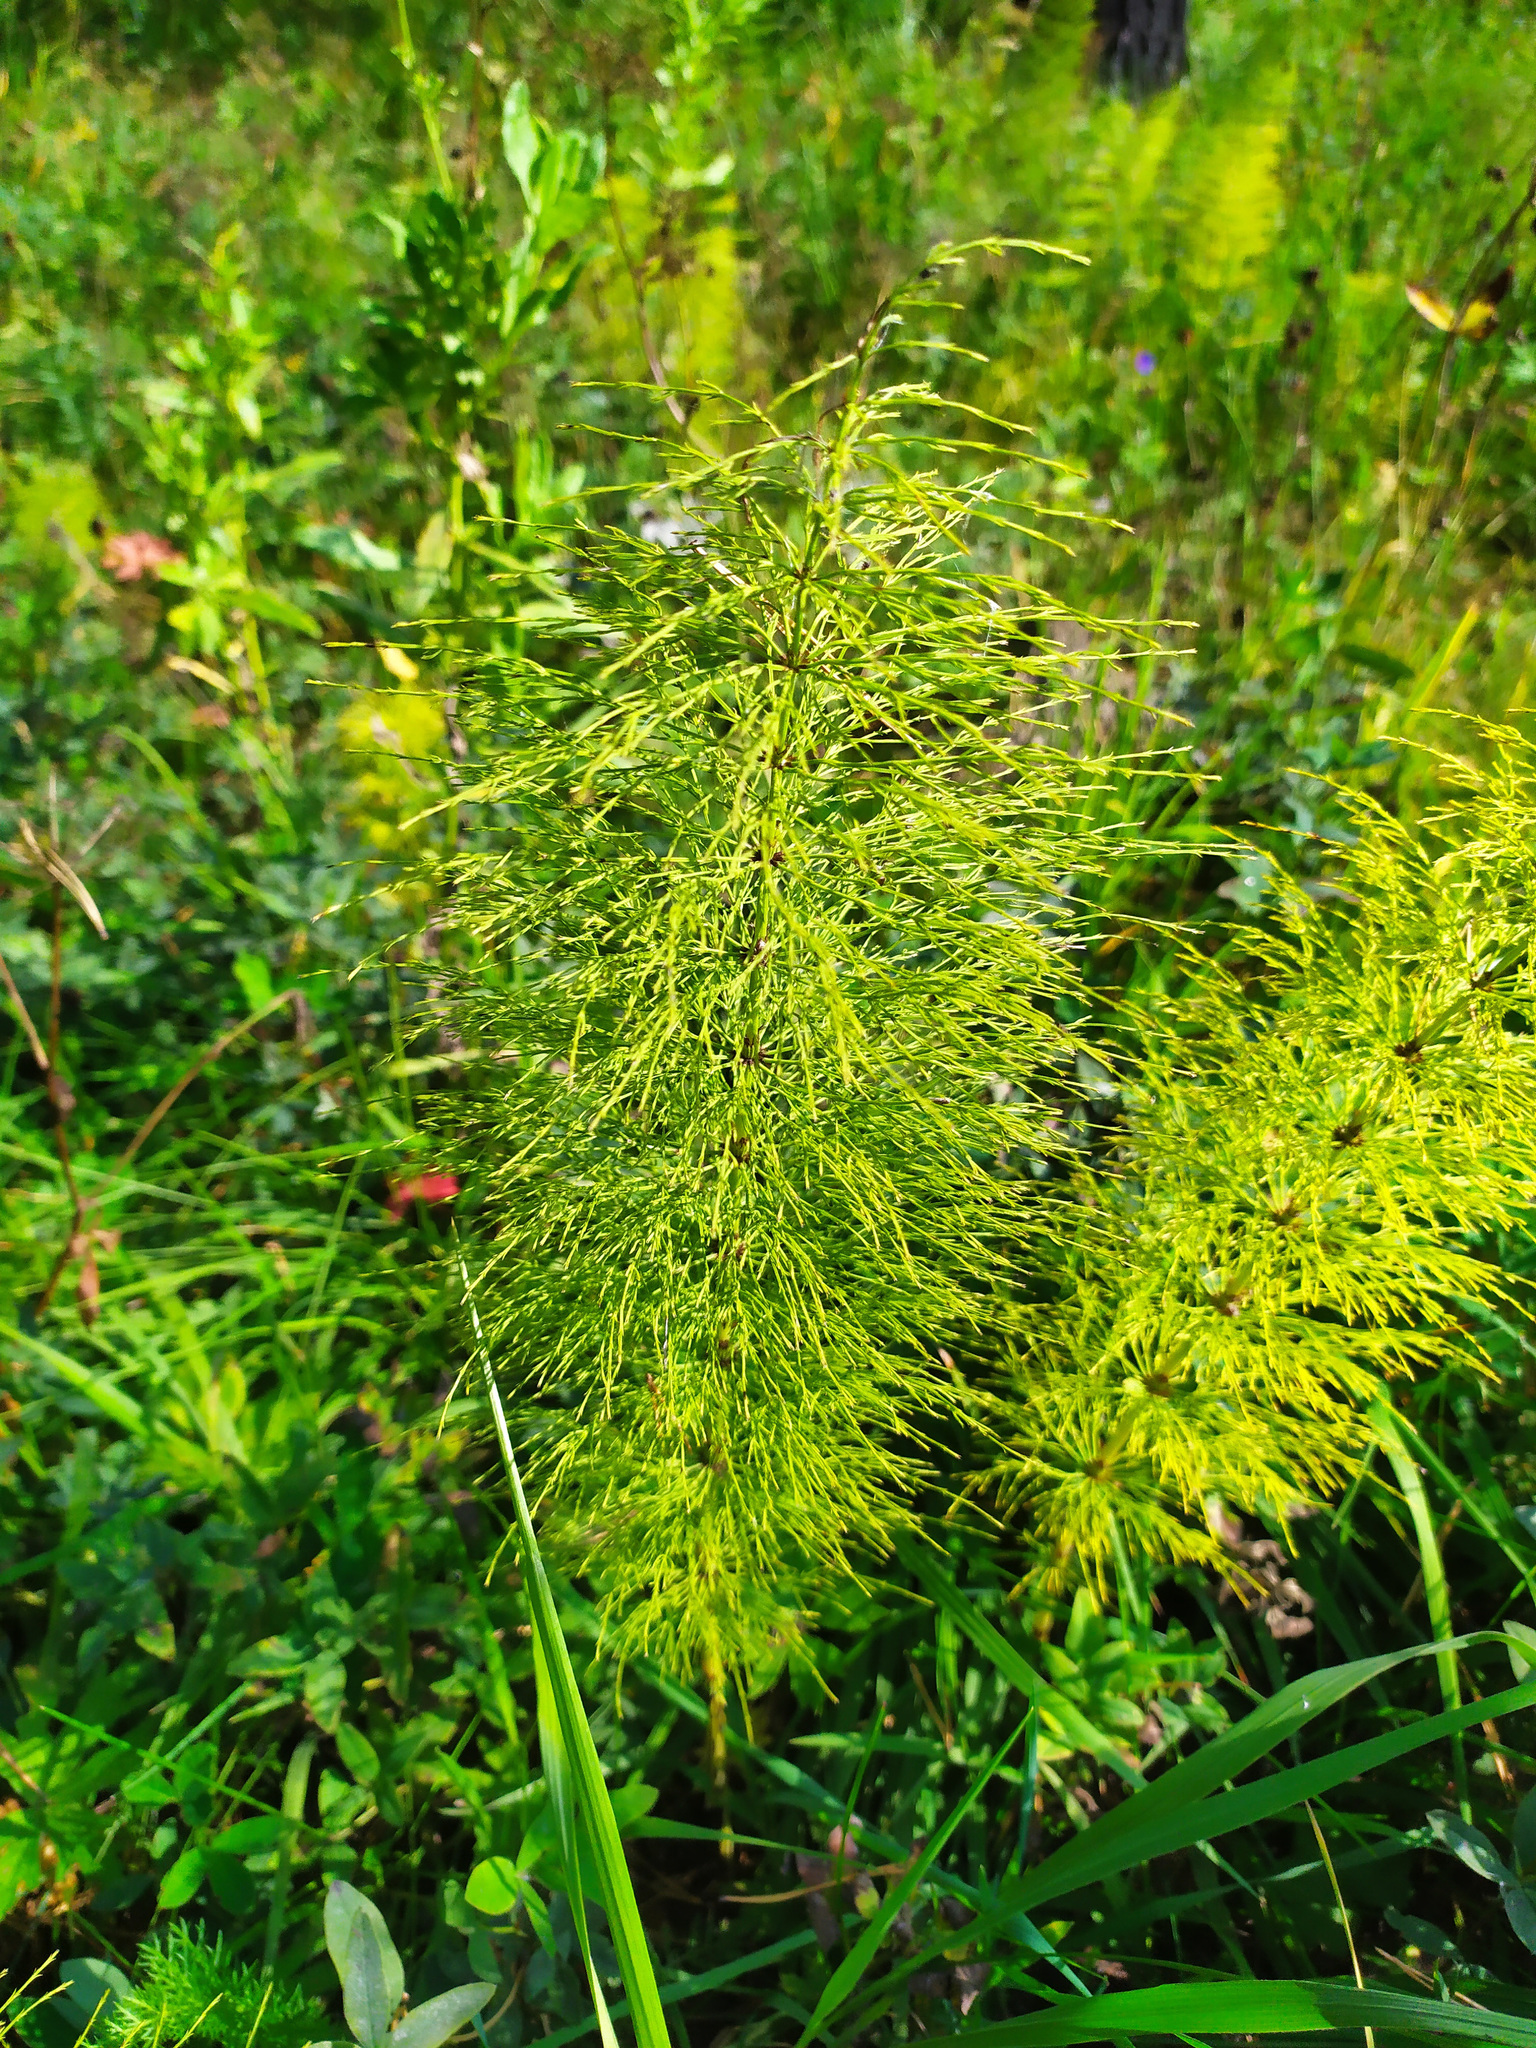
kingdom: Plantae
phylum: Tracheophyta
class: Polypodiopsida
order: Equisetales
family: Equisetaceae
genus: Equisetum
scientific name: Equisetum sylvaticum
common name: Wood horsetail
